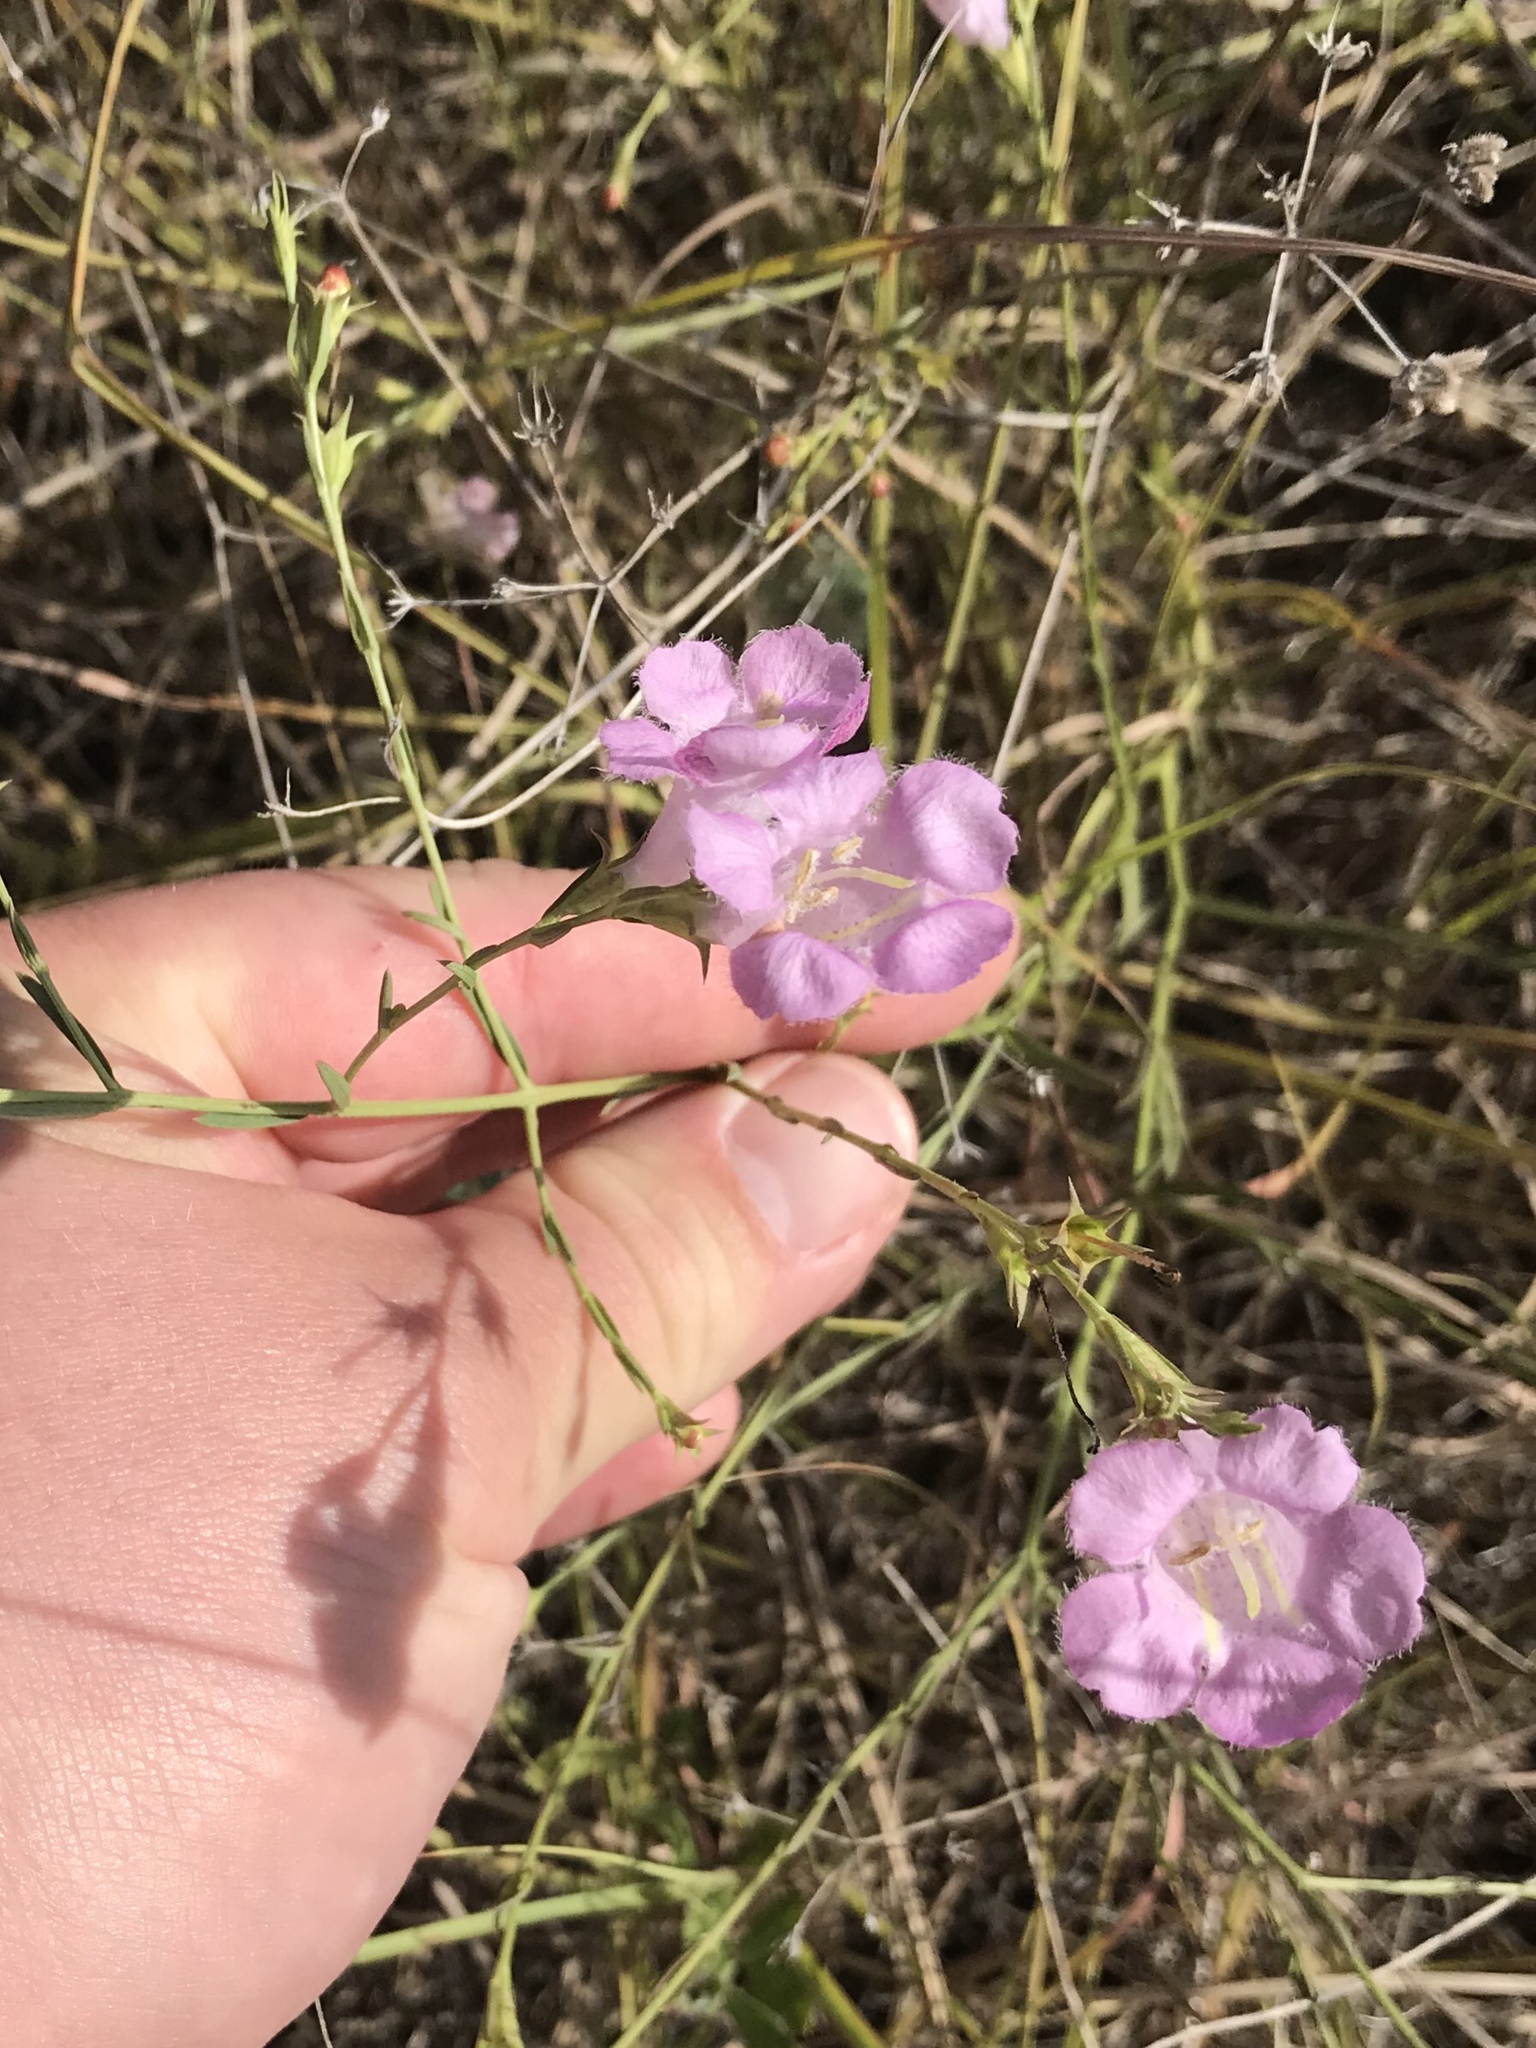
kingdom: Plantae
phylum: Tracheophyta
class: Magnoliopsida
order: Lamiales
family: Orobanchaceae
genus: Agalinis
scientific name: Agalinis heterophylla
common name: Prairie agalinis
